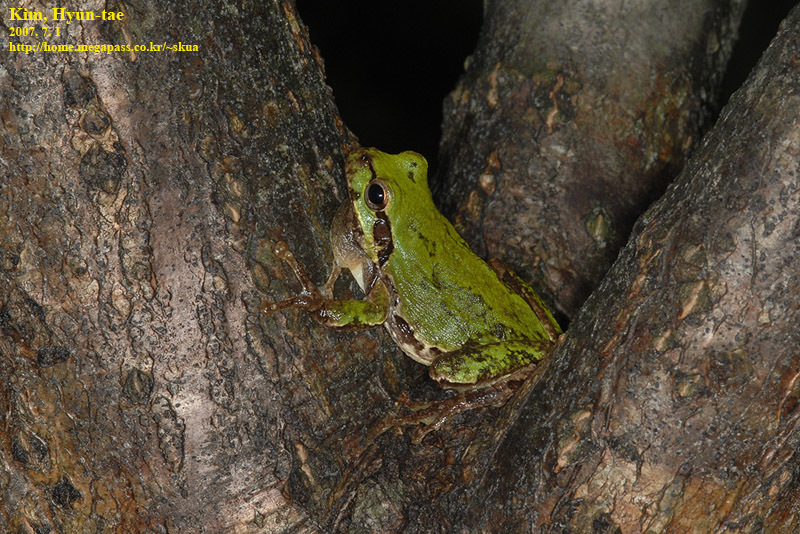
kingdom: Animalia
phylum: Chordata
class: Amphibia
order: Anura
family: Hylidae
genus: Dryophytes
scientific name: Dryophytes japonicus
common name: Japanese treefrog
